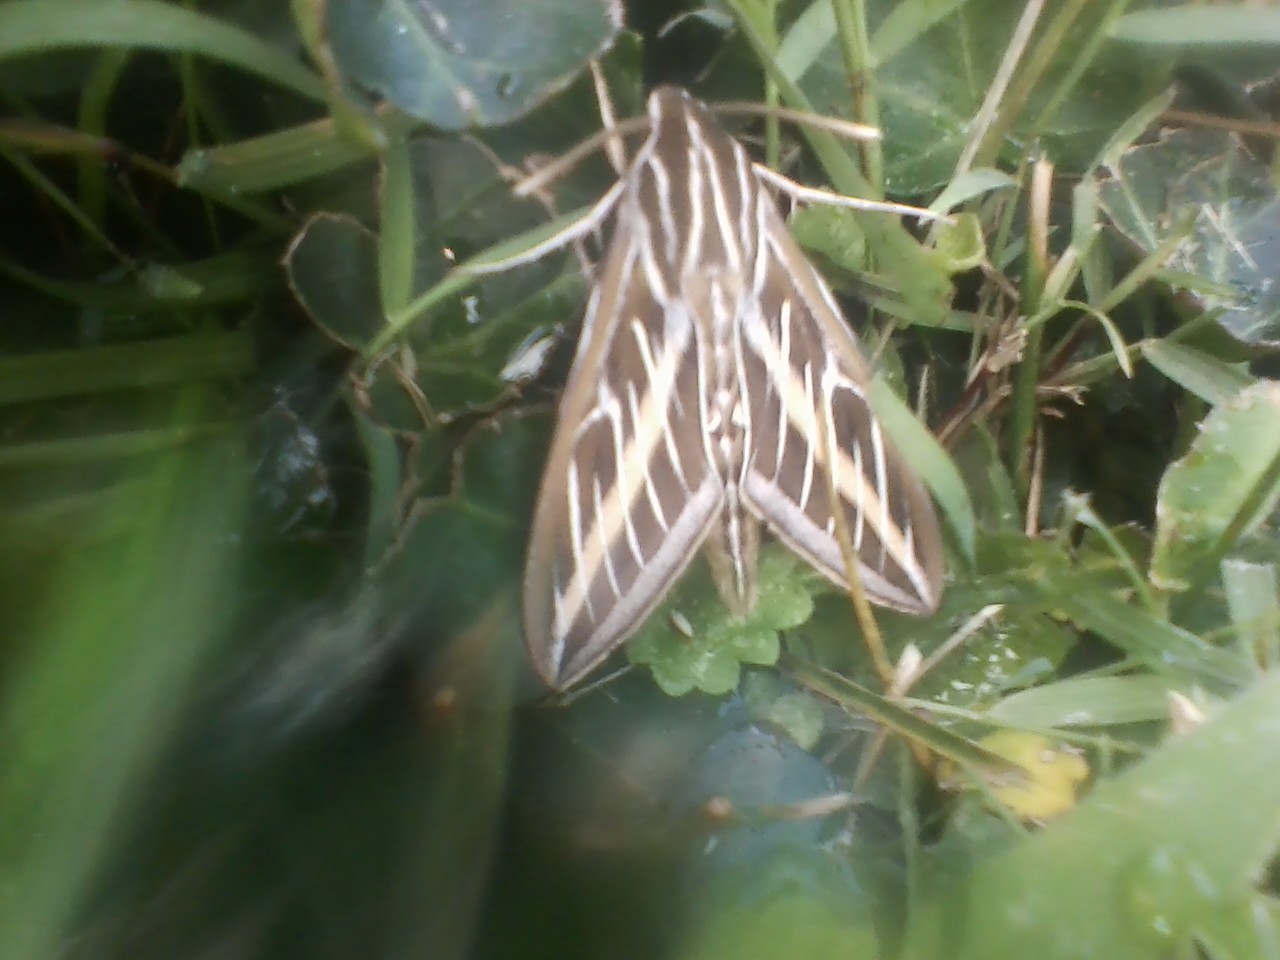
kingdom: Animalia
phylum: Arthropoda
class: Insecta
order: Lepidoptera
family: Sphingidae
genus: Hyles
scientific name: Hyles lineata
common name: White-lined sphinx
